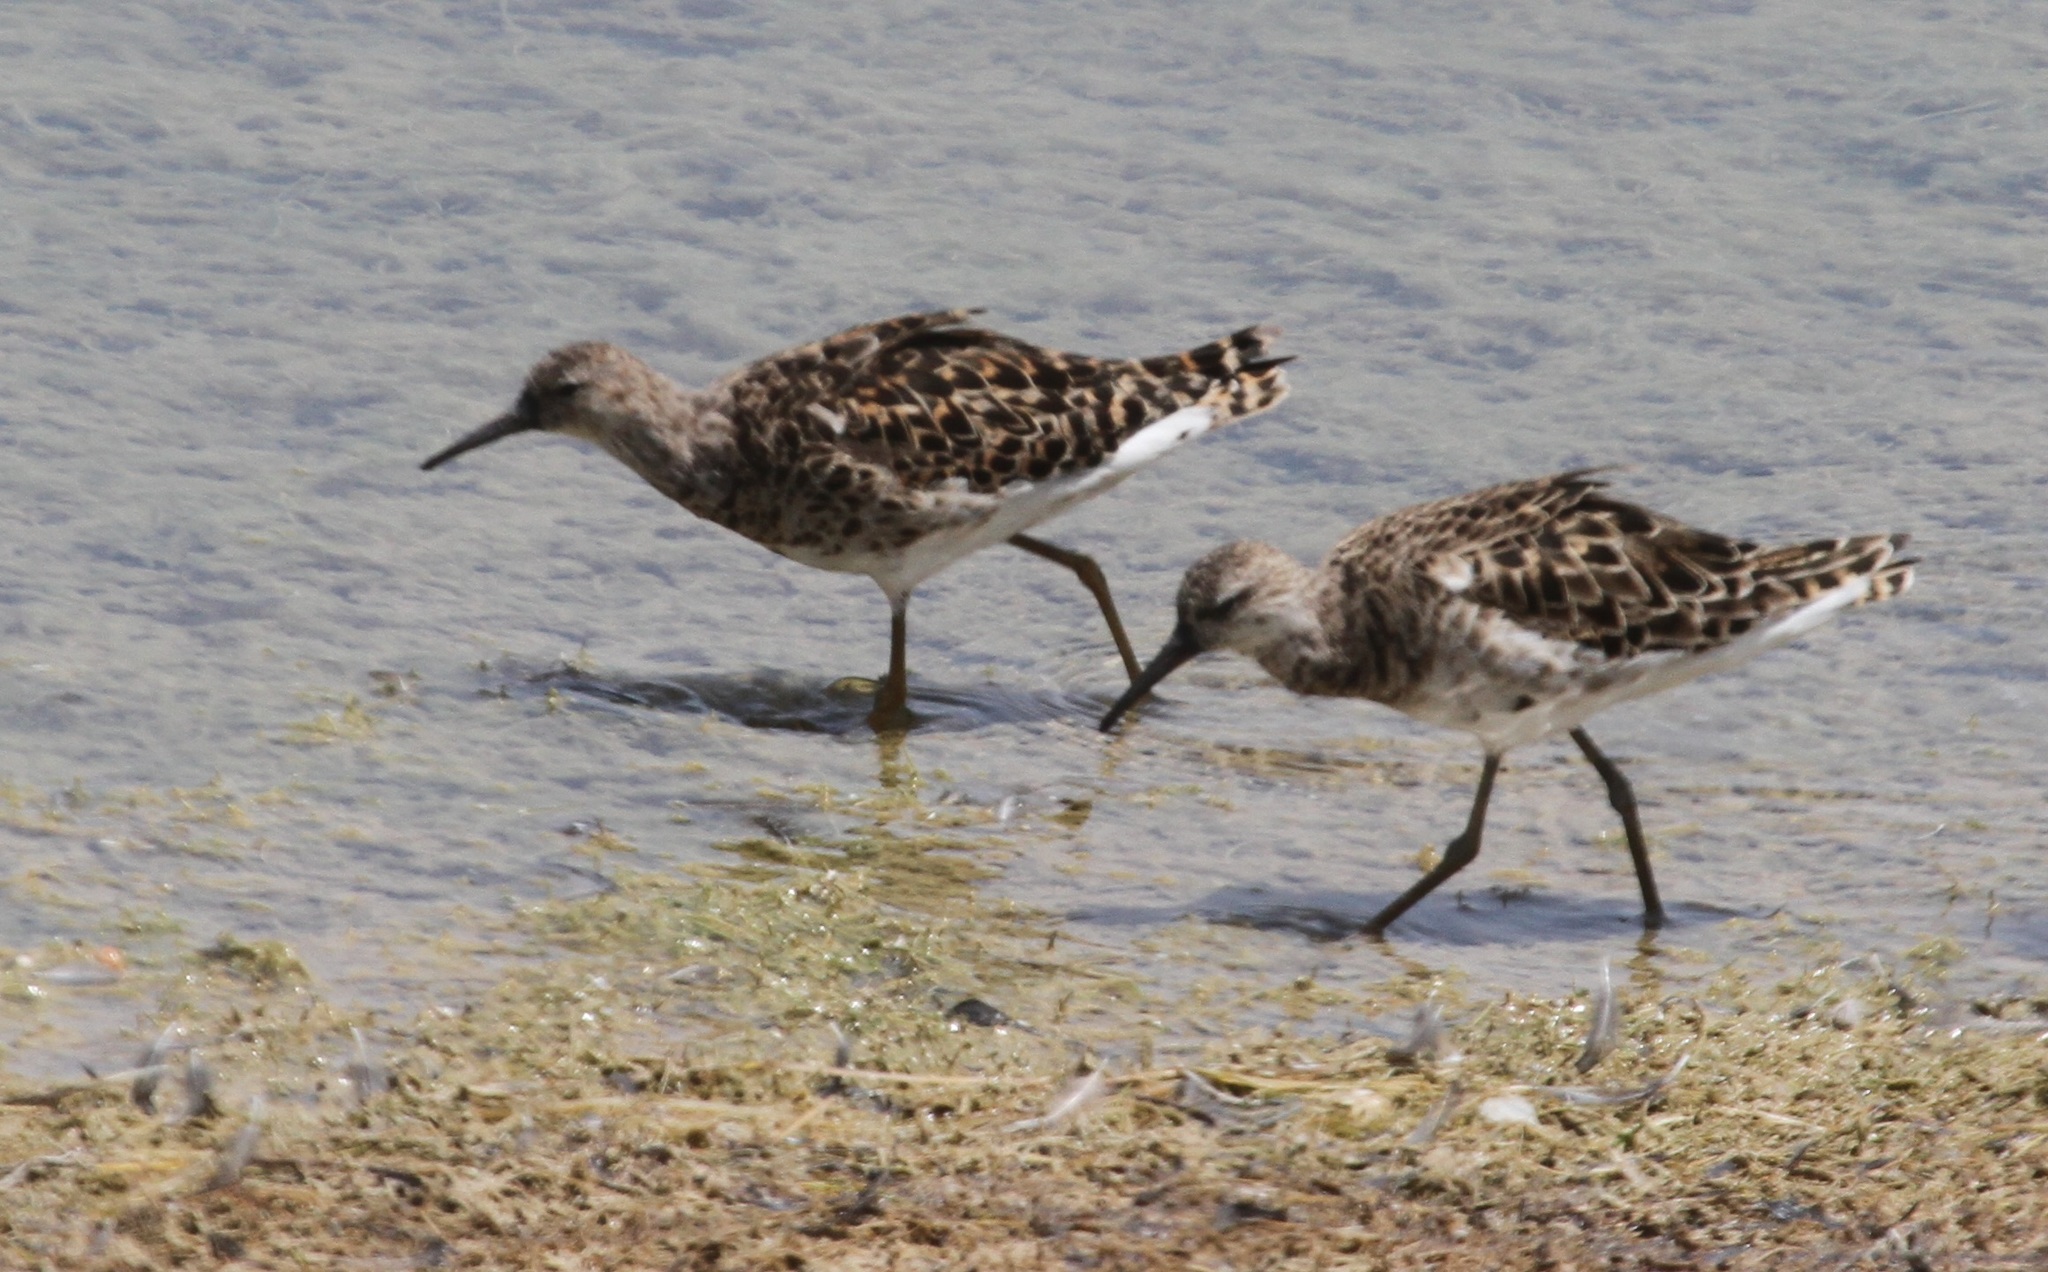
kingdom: Animalia
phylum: Chordata
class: Aves
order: Charadriiformes
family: Scolopacidae
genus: Calidris
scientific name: Calidris pugnax
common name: Ruff
